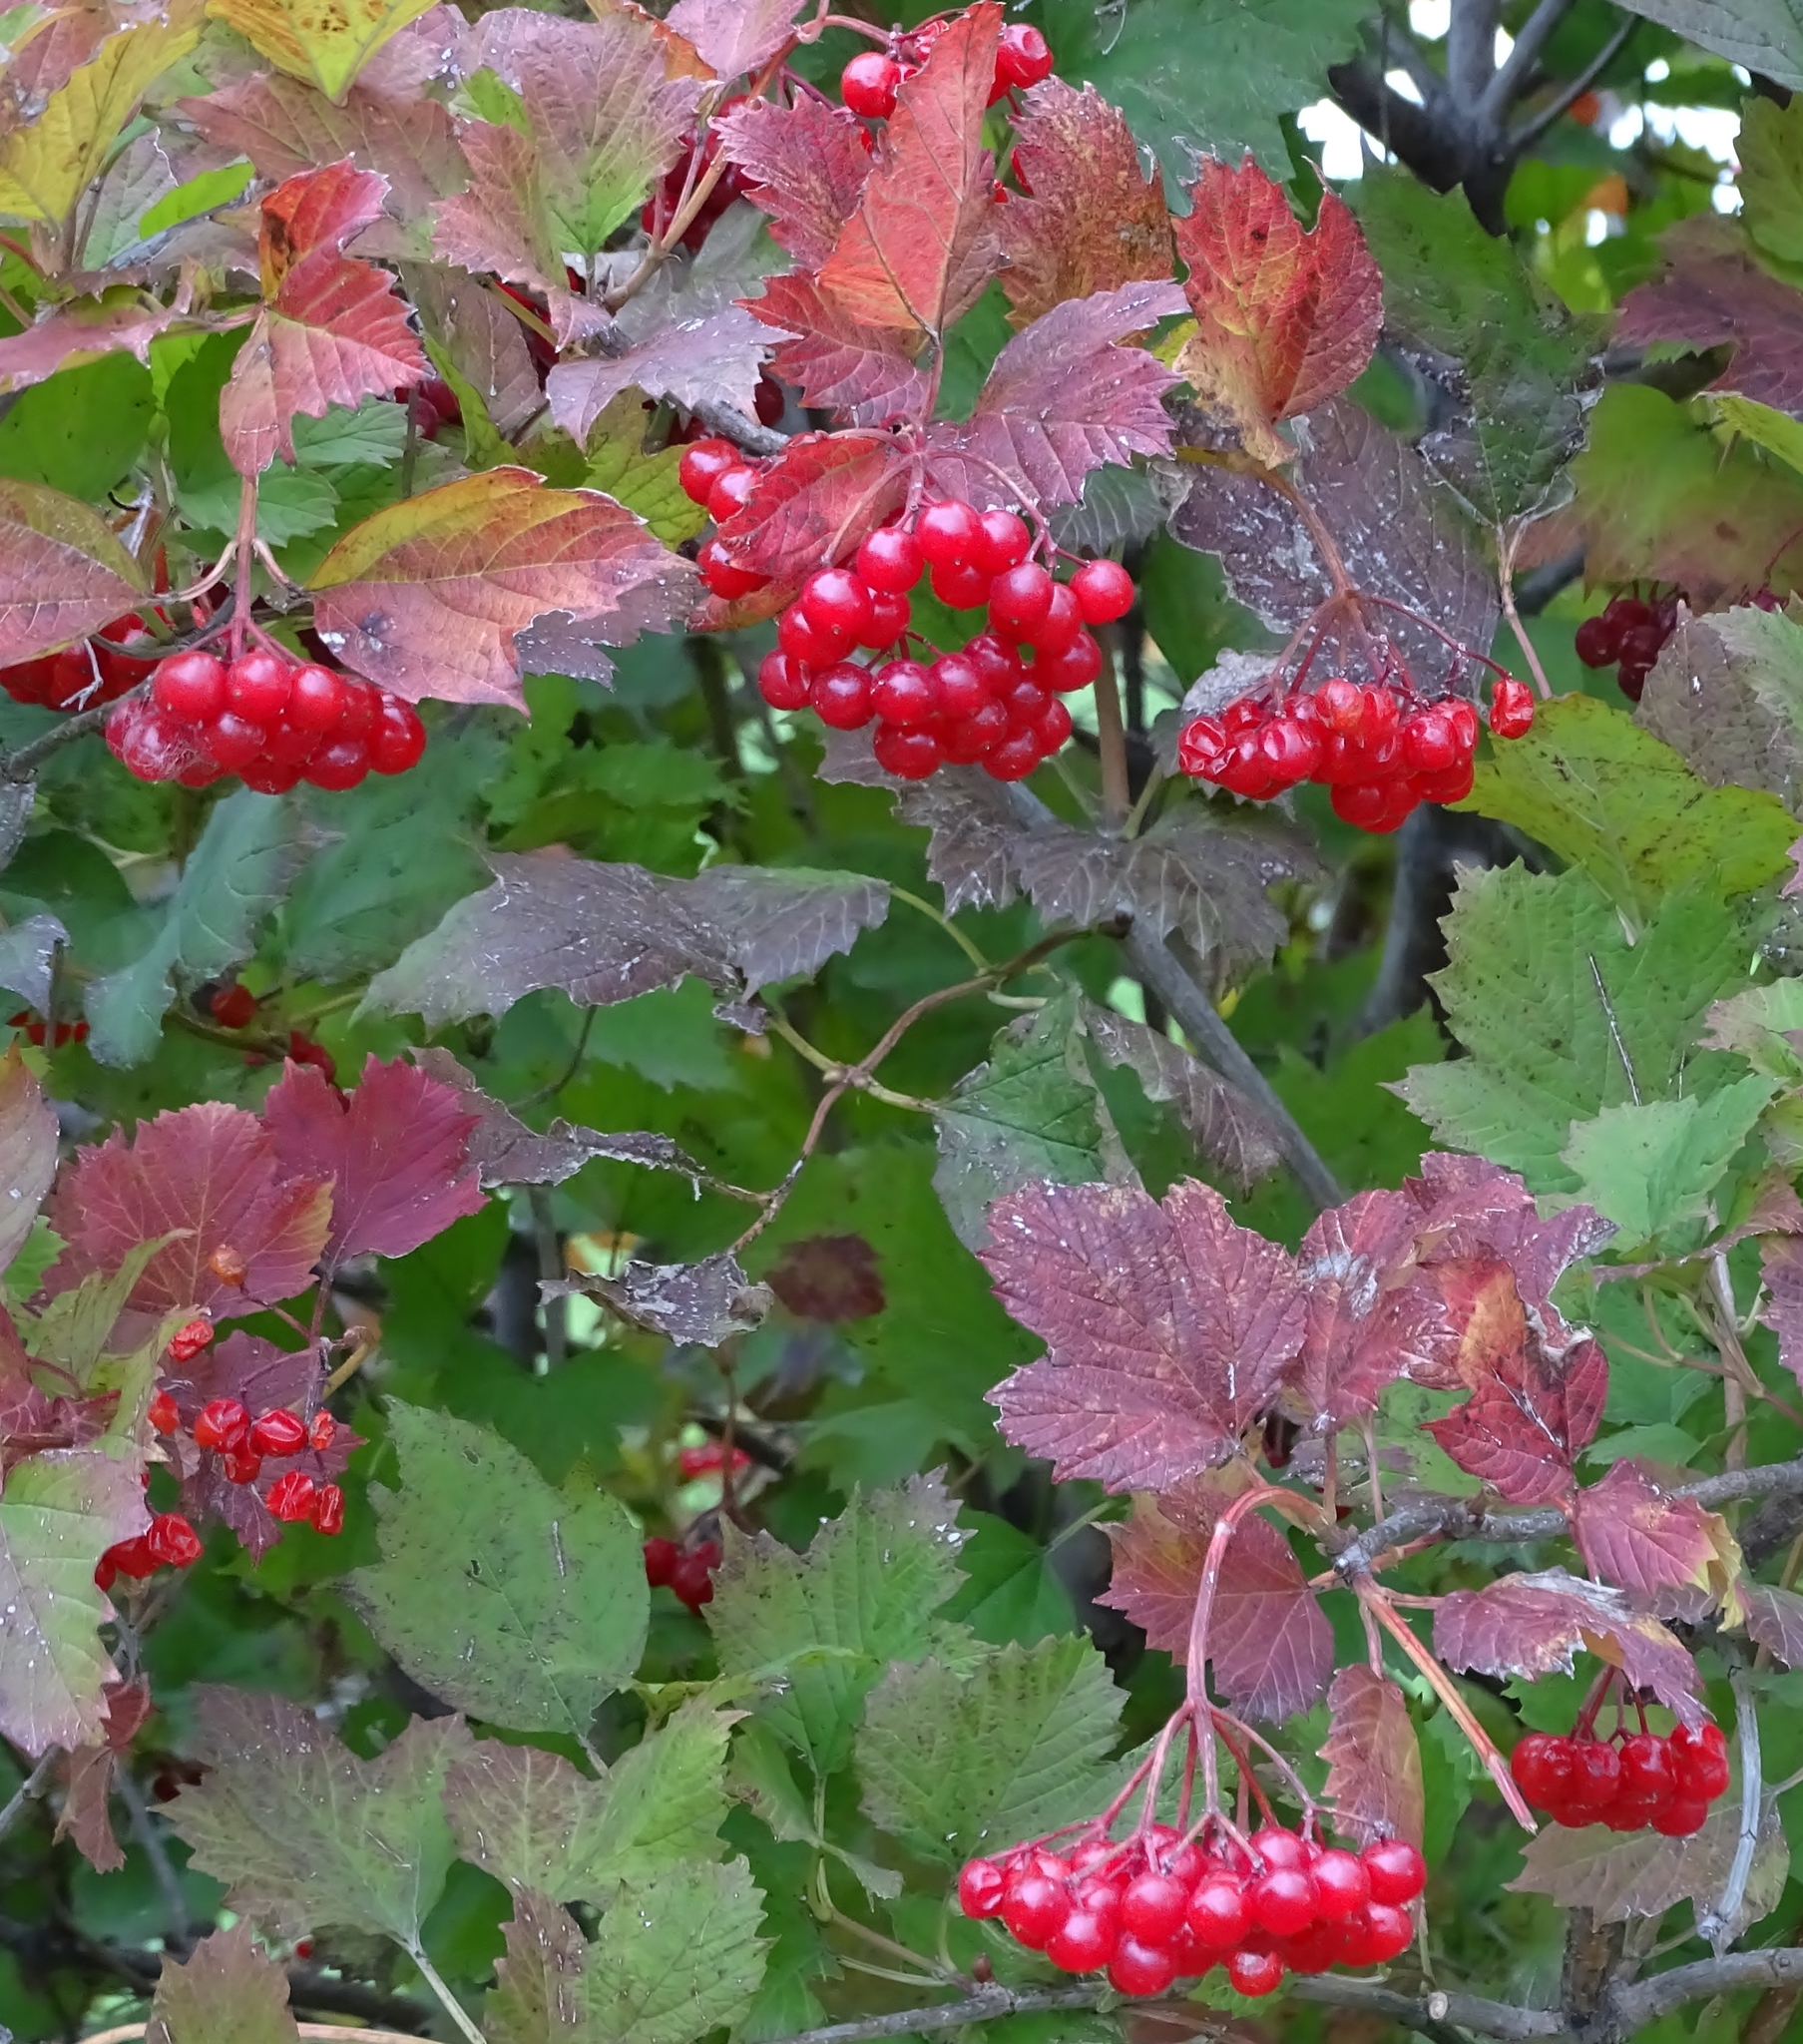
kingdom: Plantae
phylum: Tracheophyta
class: Magnoliopsida
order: Dipsacales
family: Viburnaceae
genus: Viburnum
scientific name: Viburnum trilobum
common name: American cranberrybush
